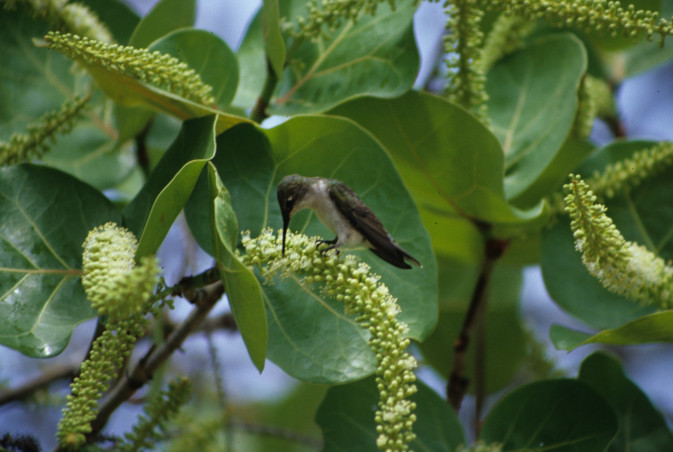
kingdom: Animalia
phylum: Chordata
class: Aves
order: Apodiformes
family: Trochilidae
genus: Archilochus
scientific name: Archilochus colubris
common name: Ruby-throated hummingbird
